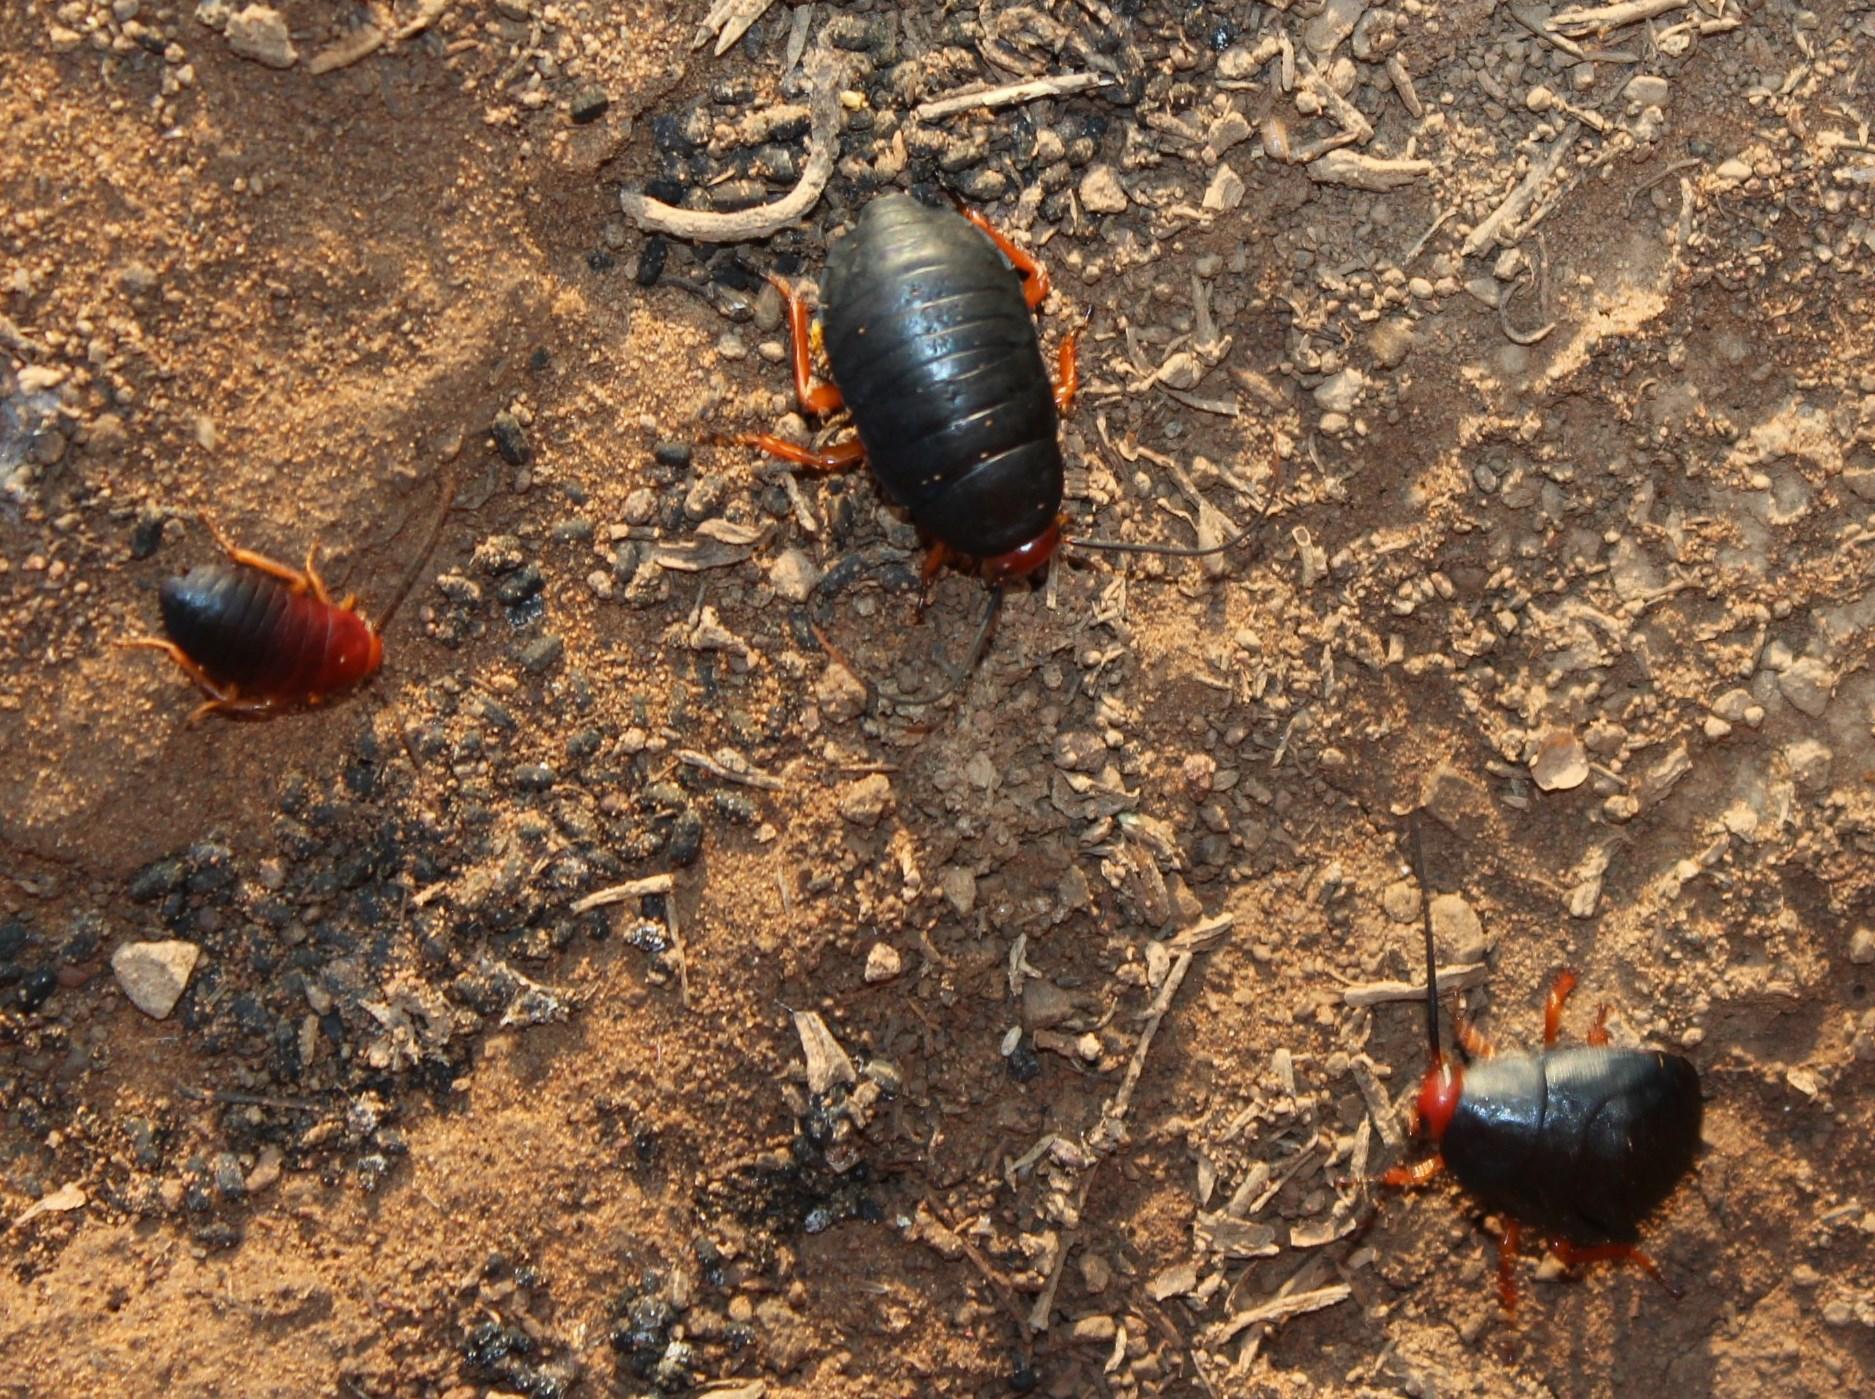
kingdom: Animalia
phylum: Arthropoda
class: Insecta
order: Blattodea
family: Blattidae
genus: Deropeltis
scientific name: Deropeltis erythrocephala
